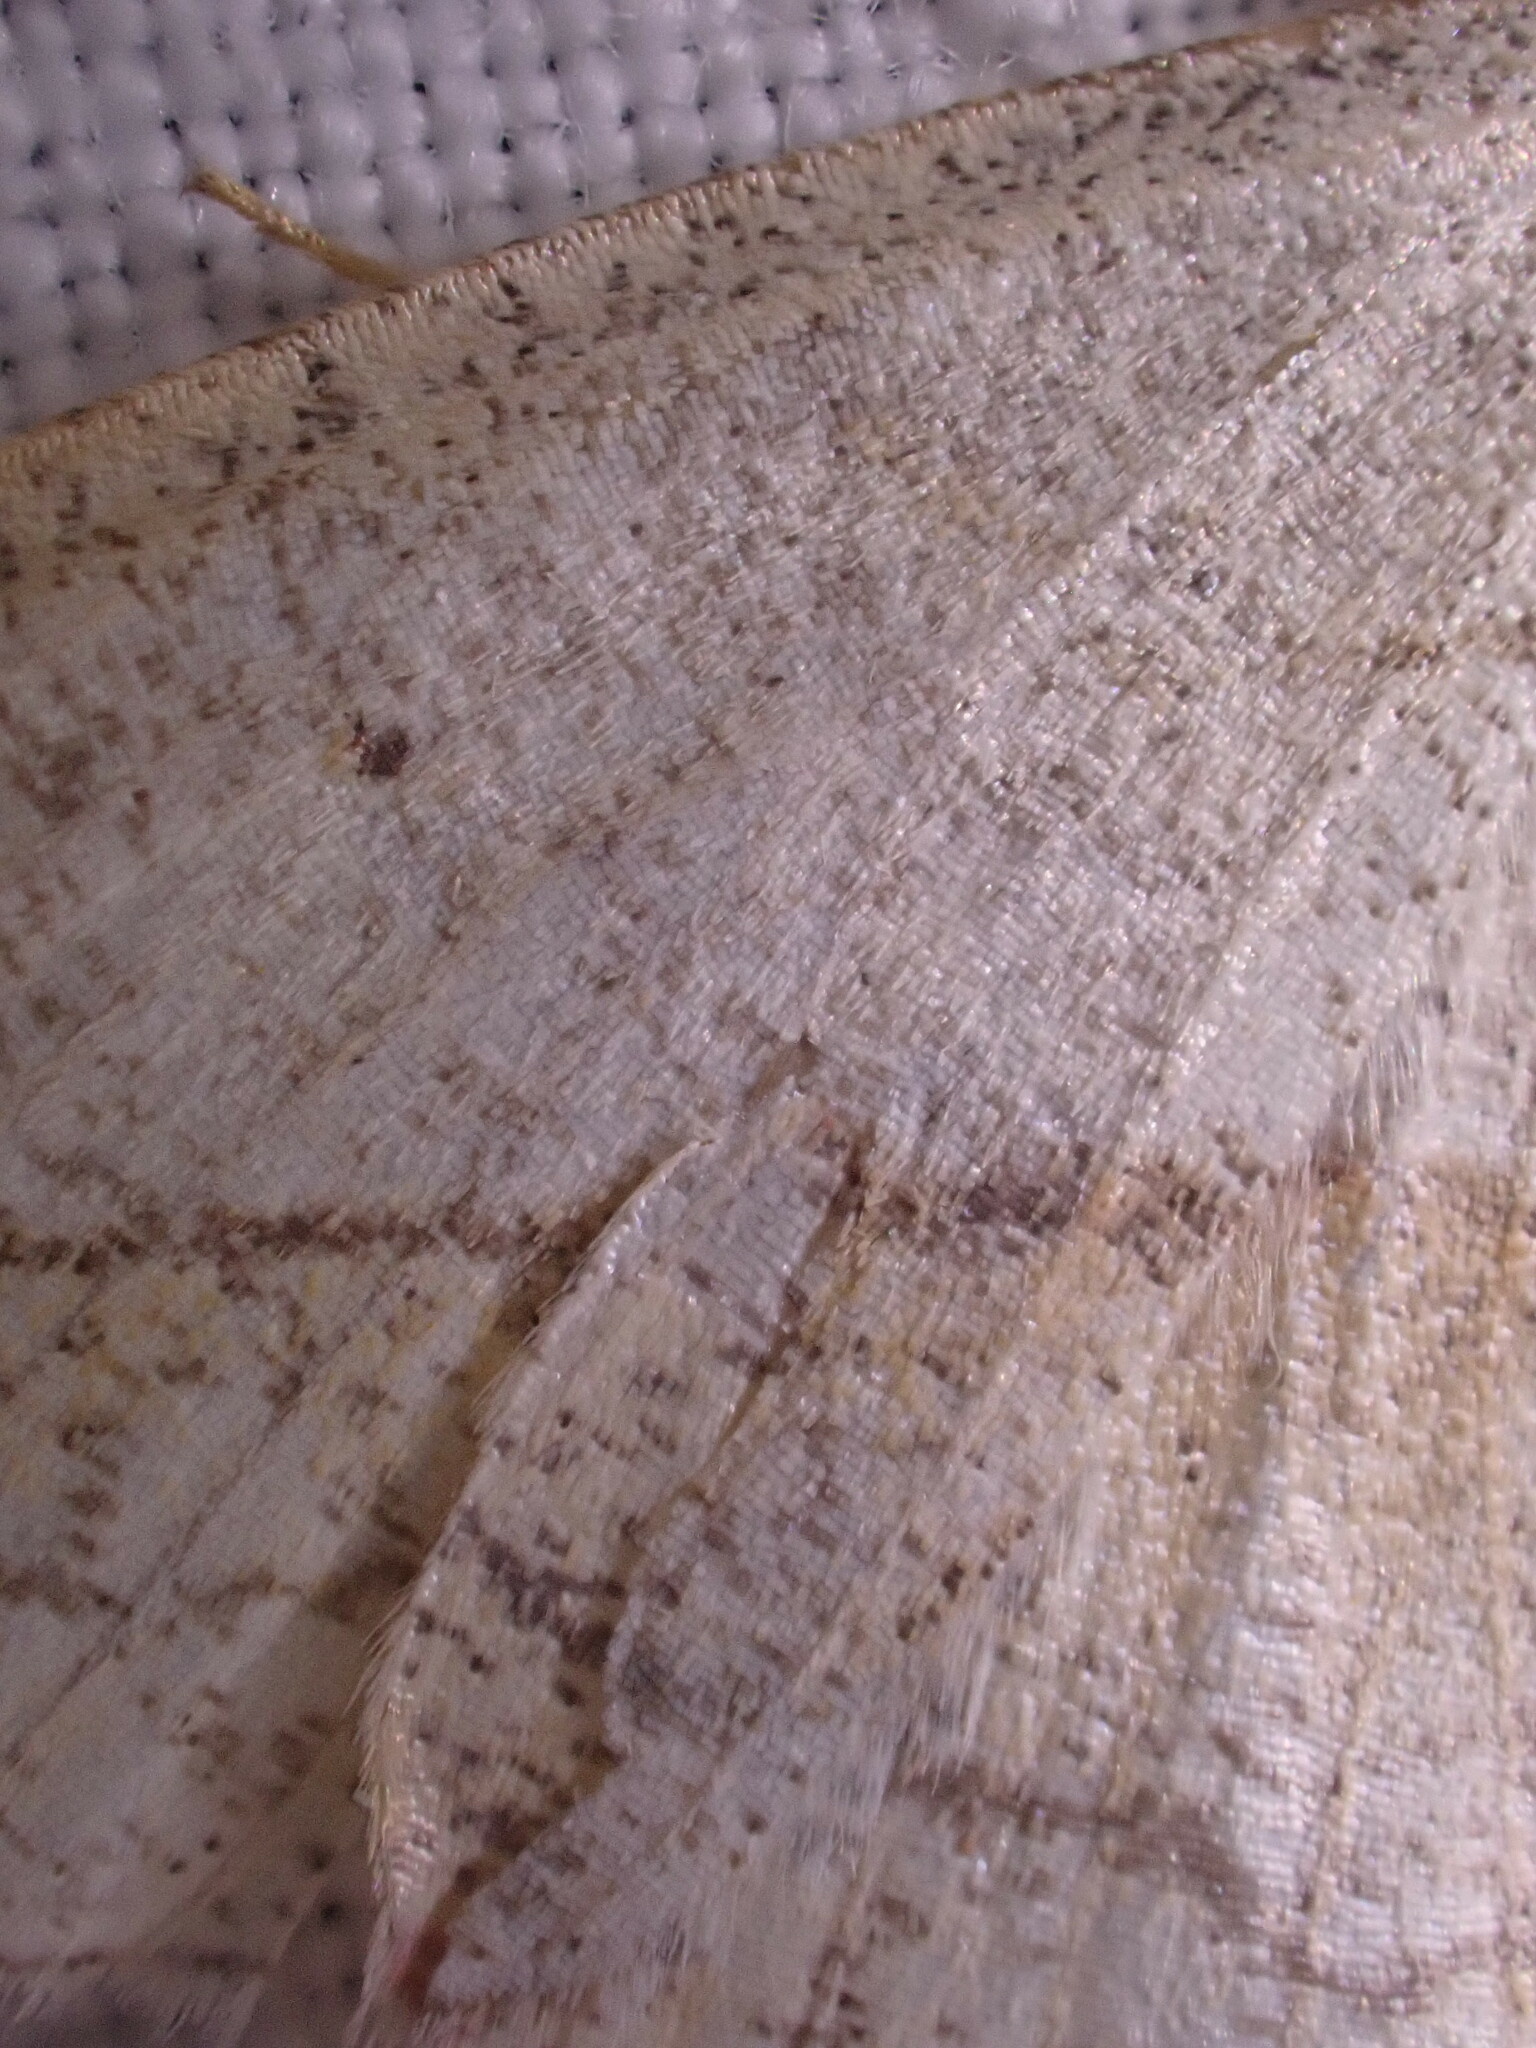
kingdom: Animalia
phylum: Arthropoda
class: Insecta
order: Lepidoptera
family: Geometridae
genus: Timandra
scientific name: Timandra comae
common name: Blood-vein
